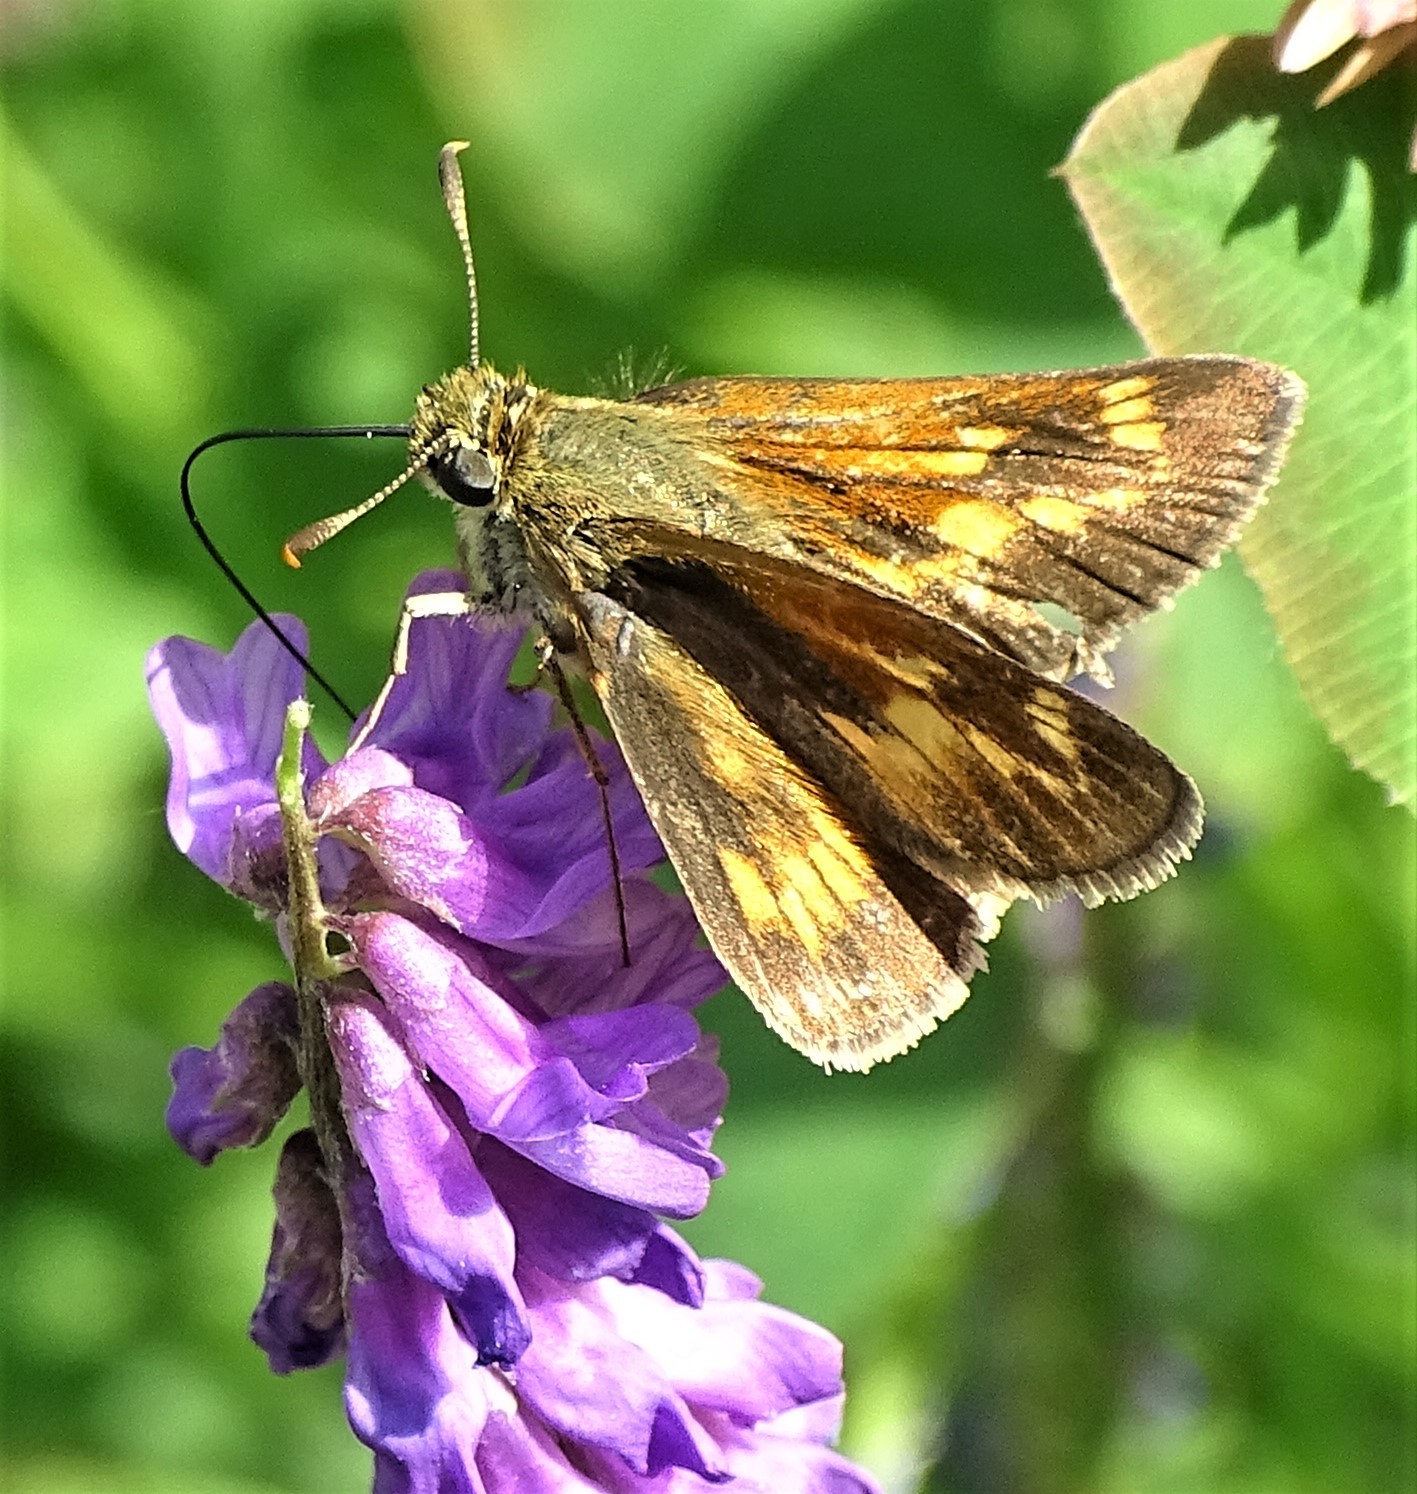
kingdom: Animalia
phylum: Arthropoda
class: Insecta
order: Lepidoptera
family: Hesperiidae
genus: Polites
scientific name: Polites mystic
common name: Long dash
